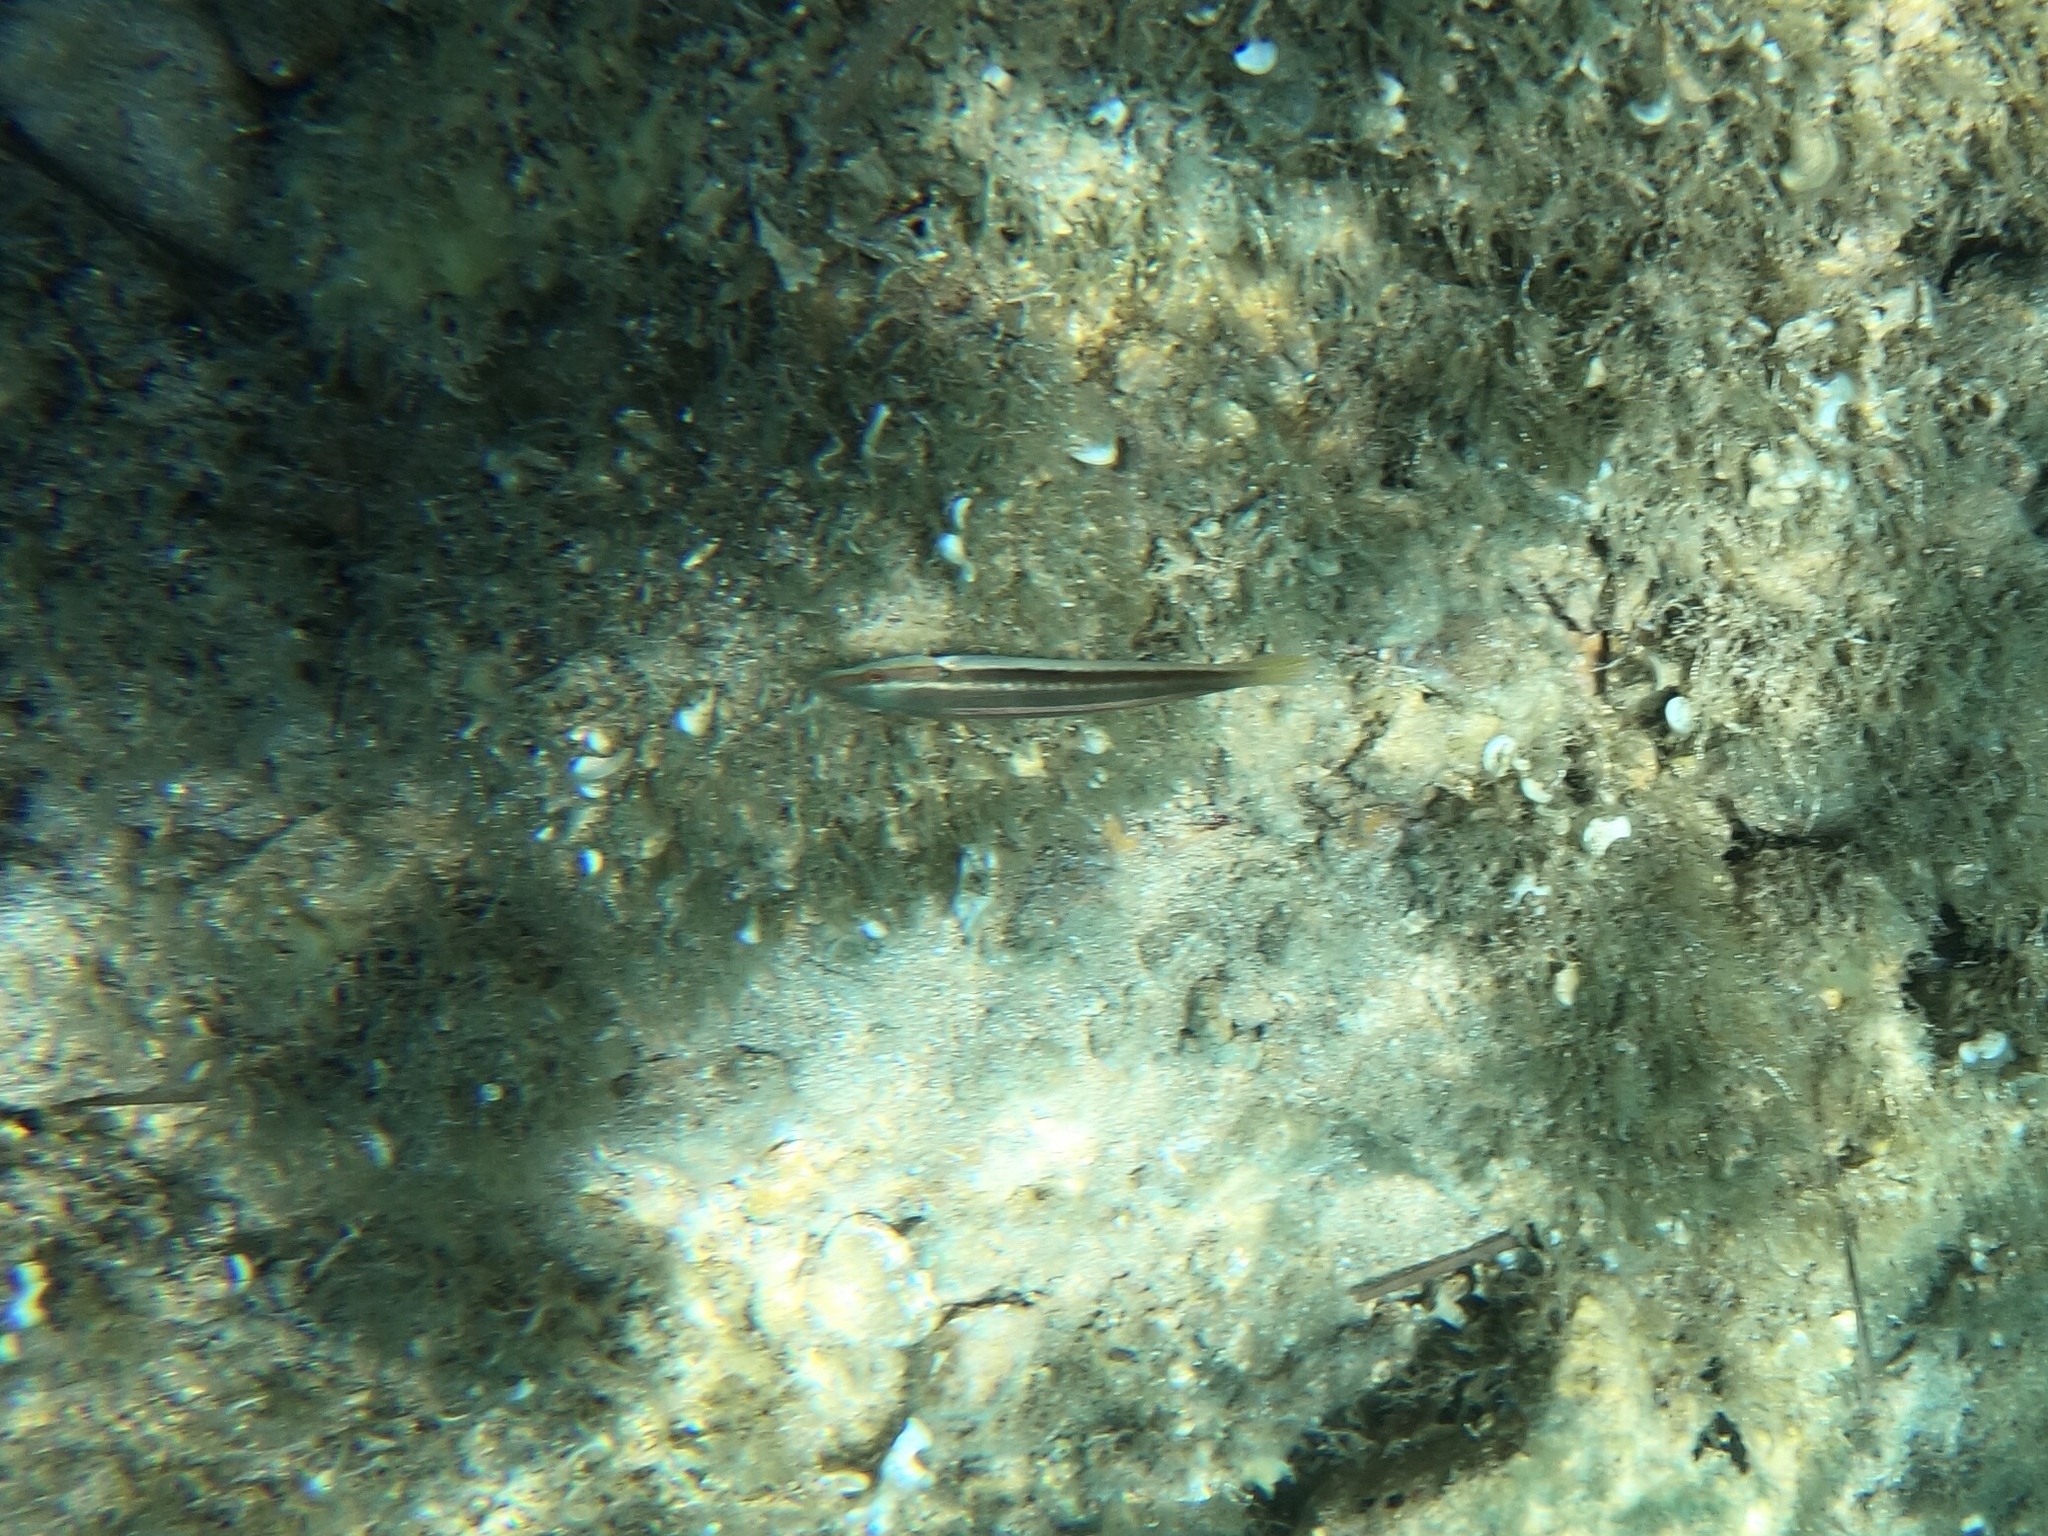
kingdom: Animalia
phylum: Chordata
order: Perciformes
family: Labridae
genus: Coris
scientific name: Coris julis
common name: Rainbow wrasse
